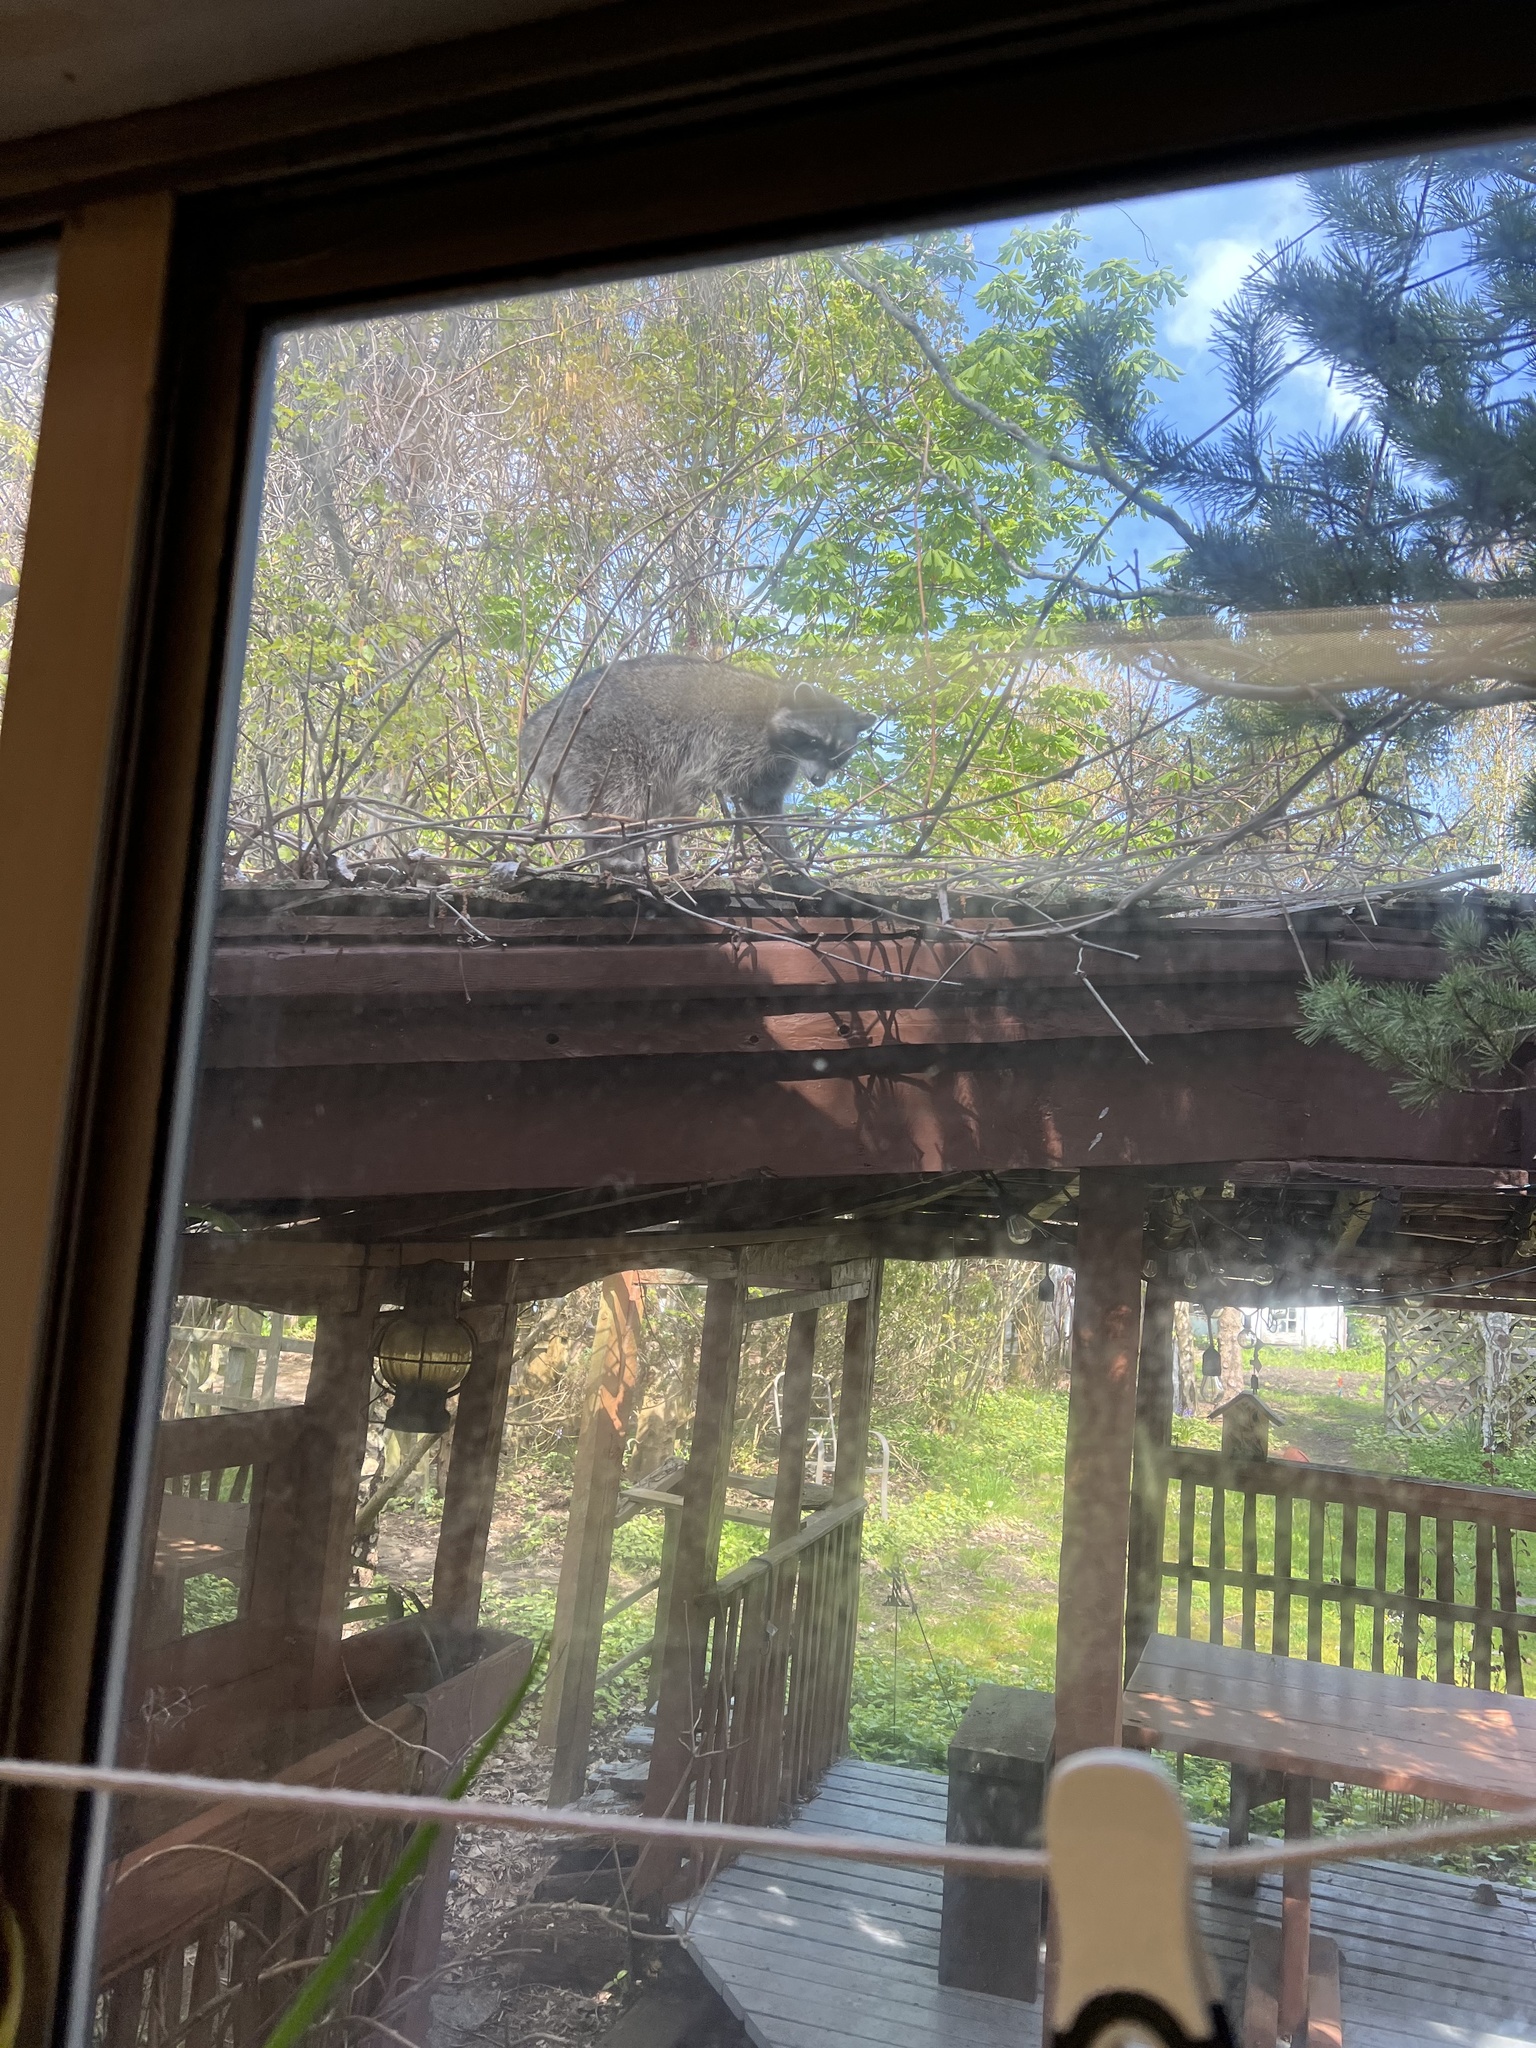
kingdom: Animalia
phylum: Chordata
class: Mammalia
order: Carnivora
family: Procyonidae
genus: Procyon
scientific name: Procyon lotor
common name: Raccoon
